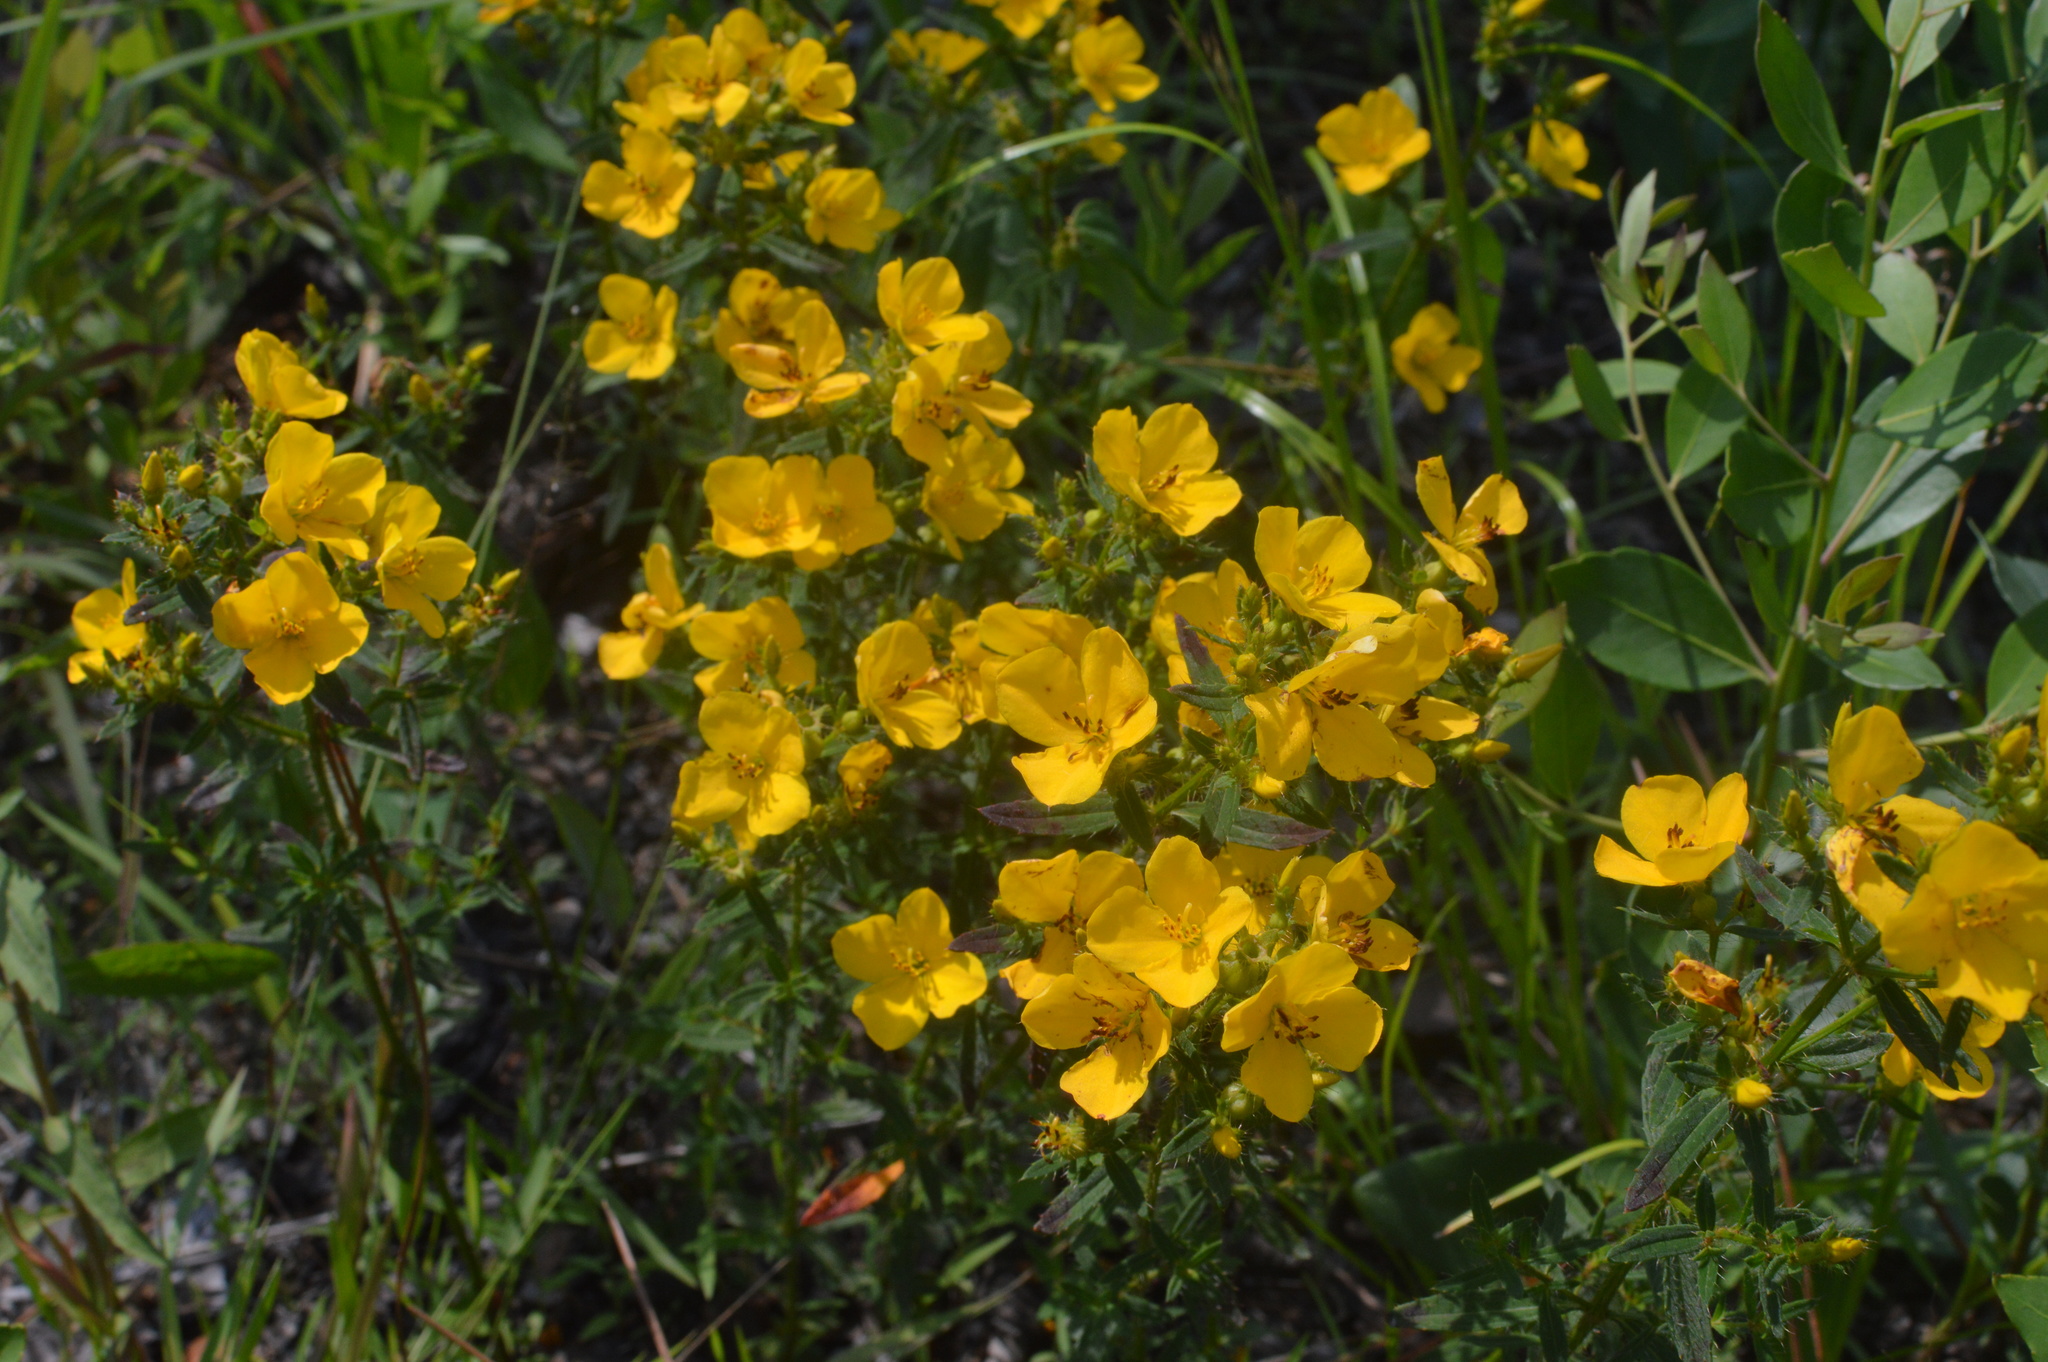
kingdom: Plantae
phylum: Tracheophyta
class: Magnoliopsida
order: Myrtales
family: Melastomataceae
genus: Rhexia
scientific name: Rhexia lutea
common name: Golden meadow-beauty
